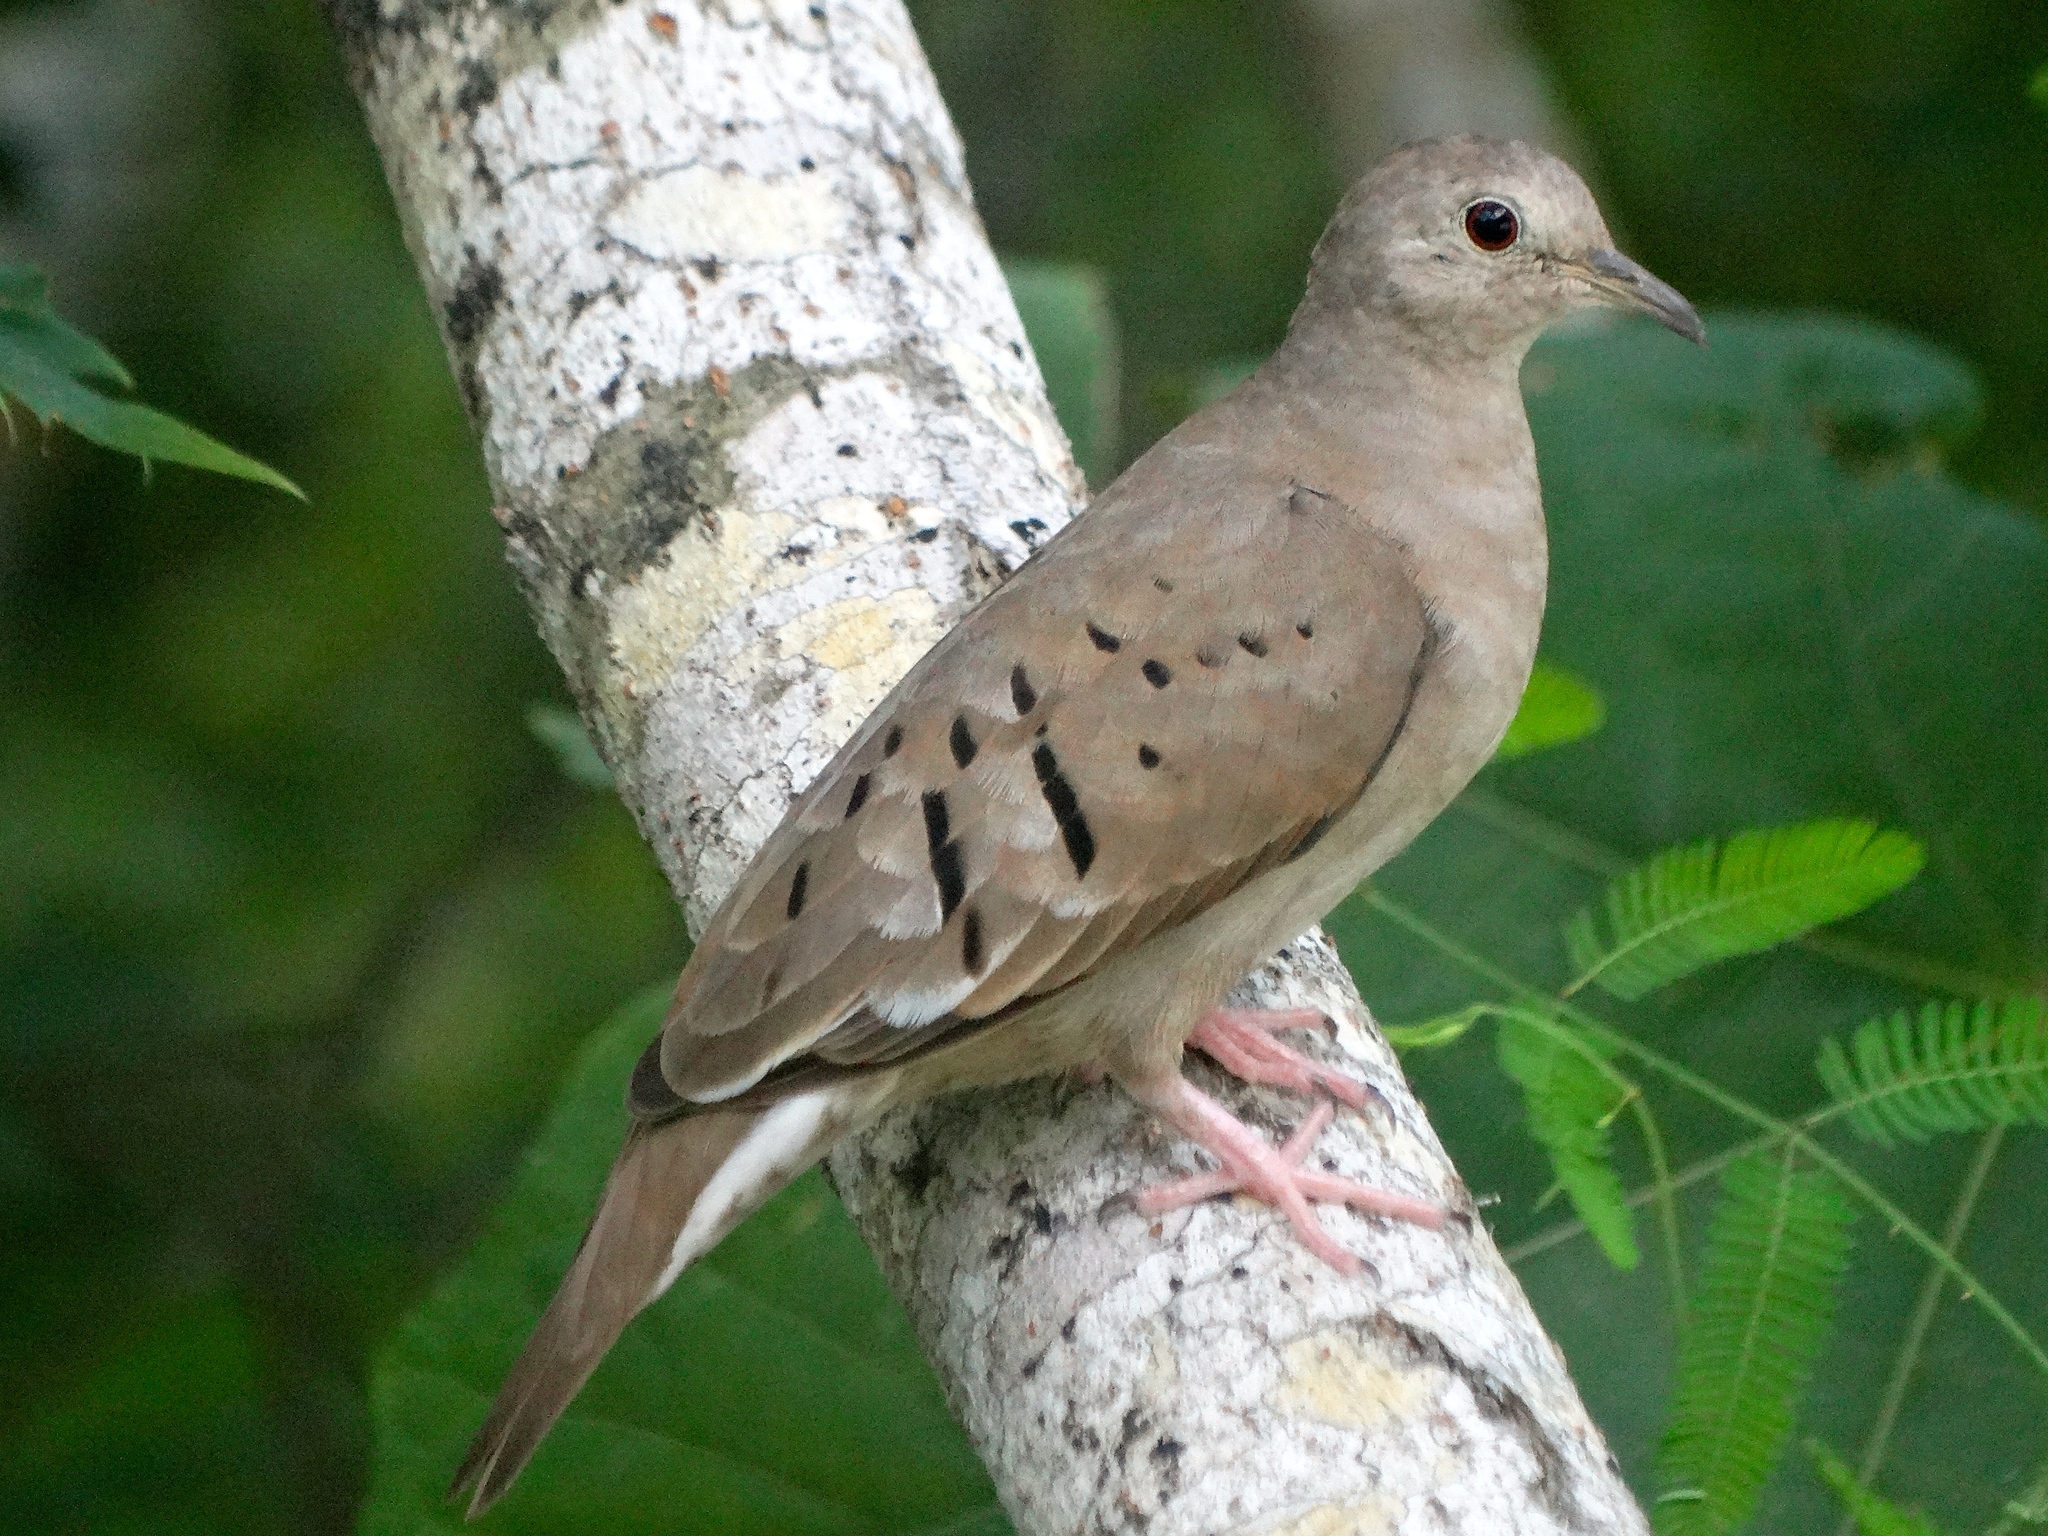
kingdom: Animalia
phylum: Chordata
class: Aves
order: Columbiformes
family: Columbidae
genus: Columbina
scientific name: Columbina passerina
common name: Common ground-dove
